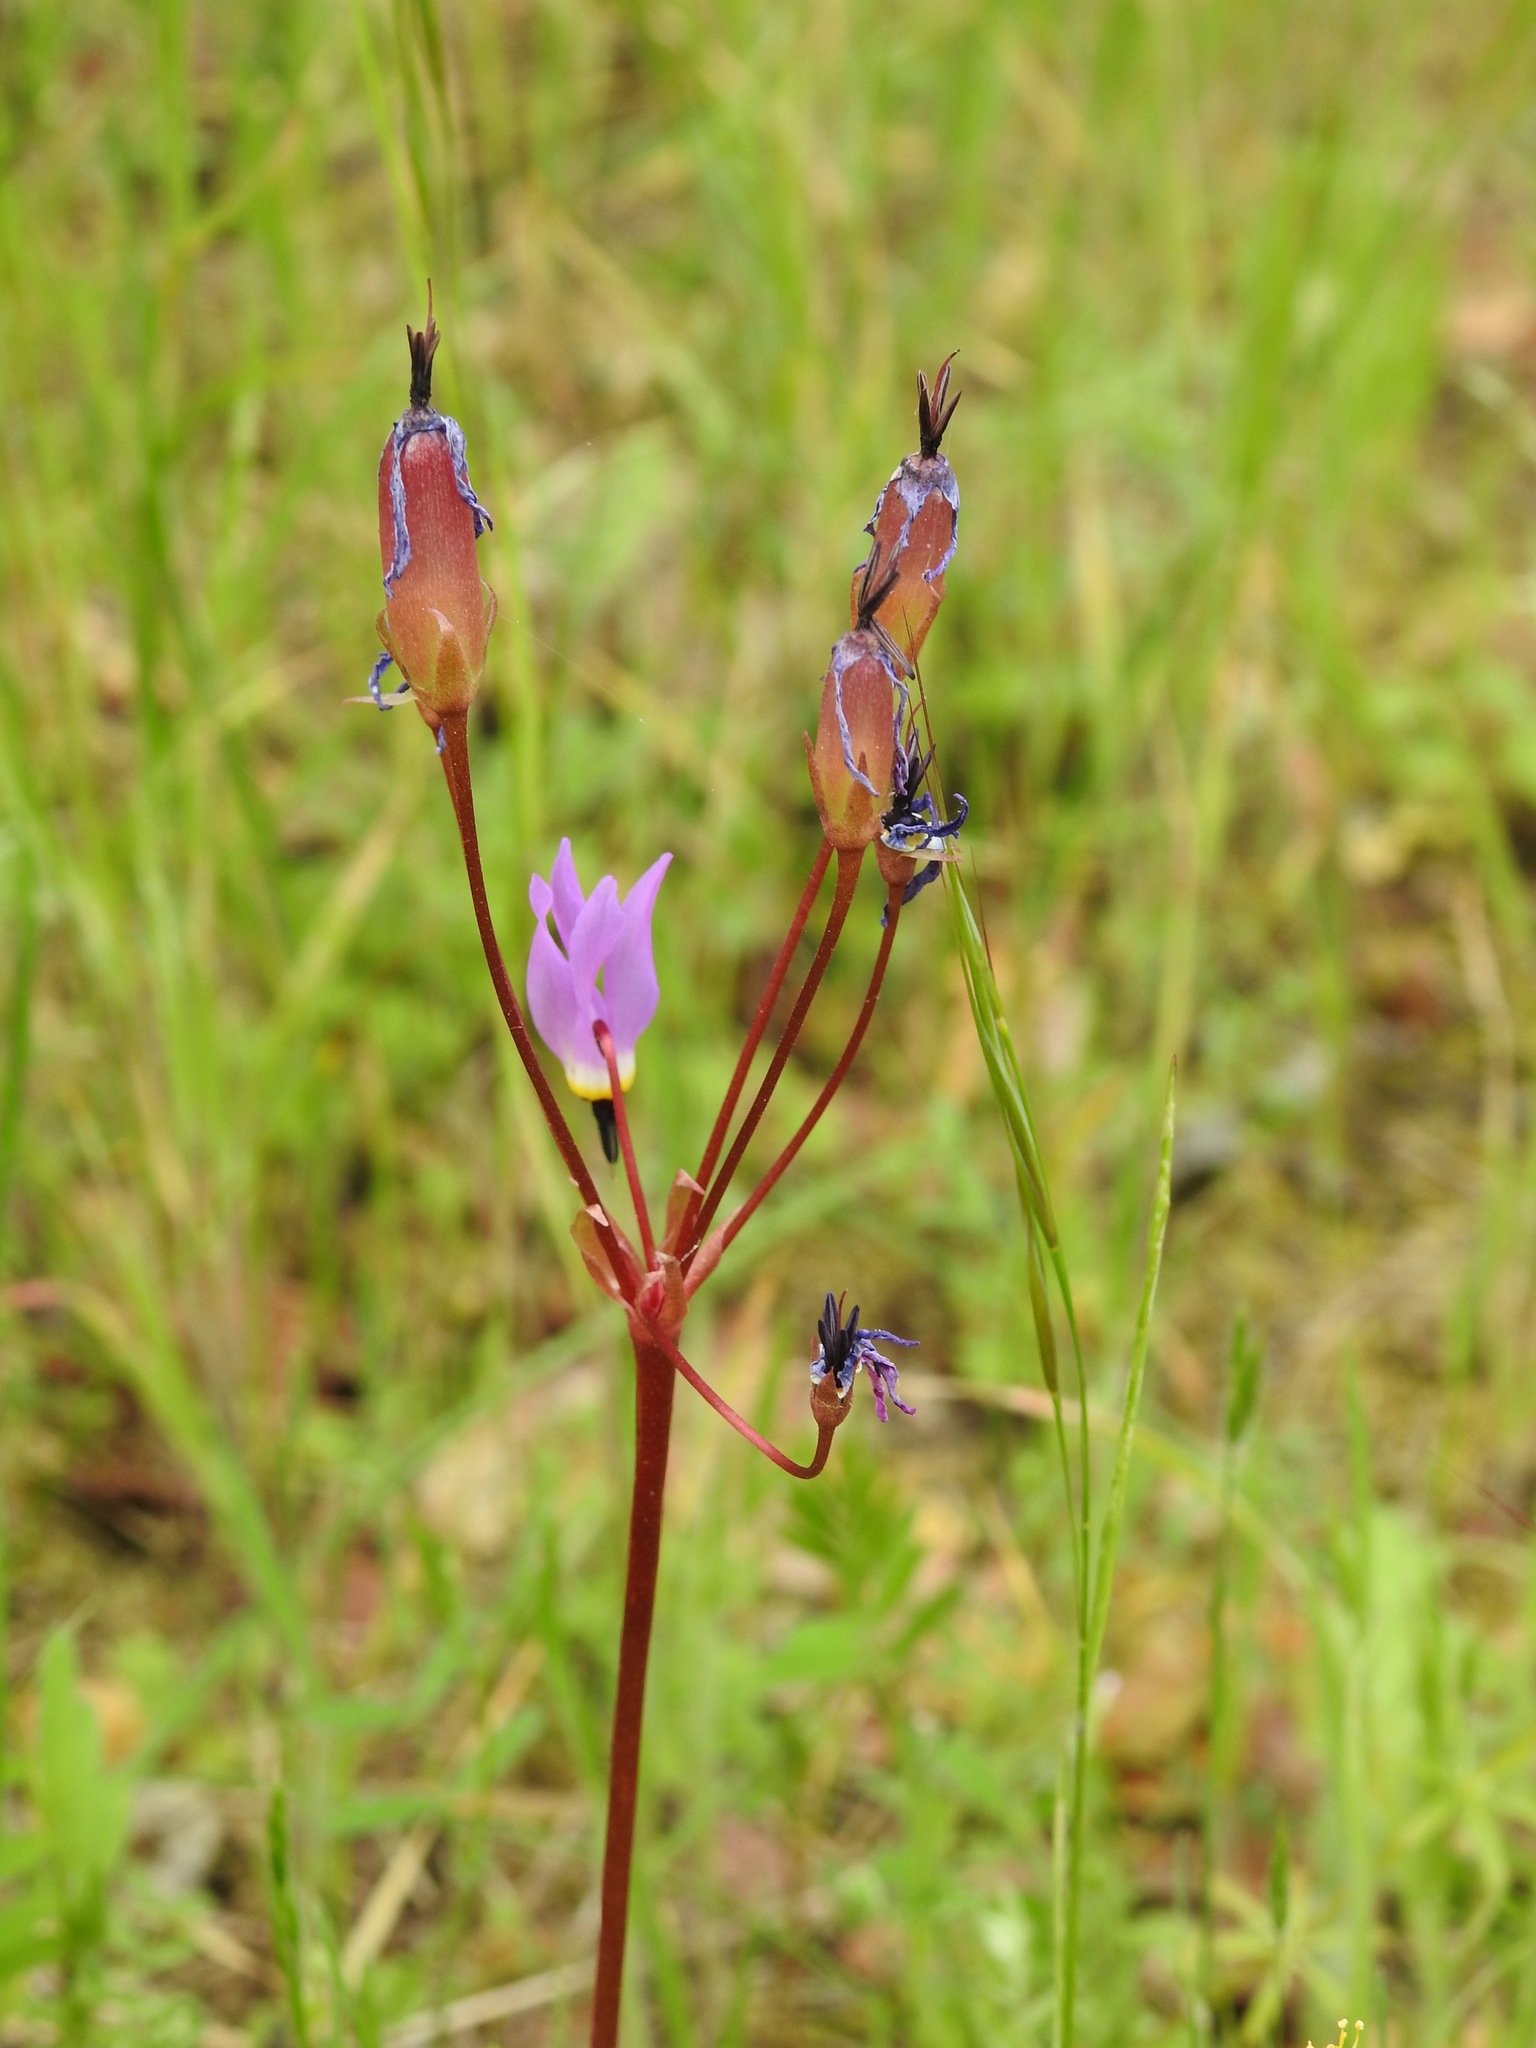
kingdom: Plantae
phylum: Tracheophyta
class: Magnoliopsida
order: Ericales
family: Primulaceae
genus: Dodecatheon
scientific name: Dodecatheon hendersonii
